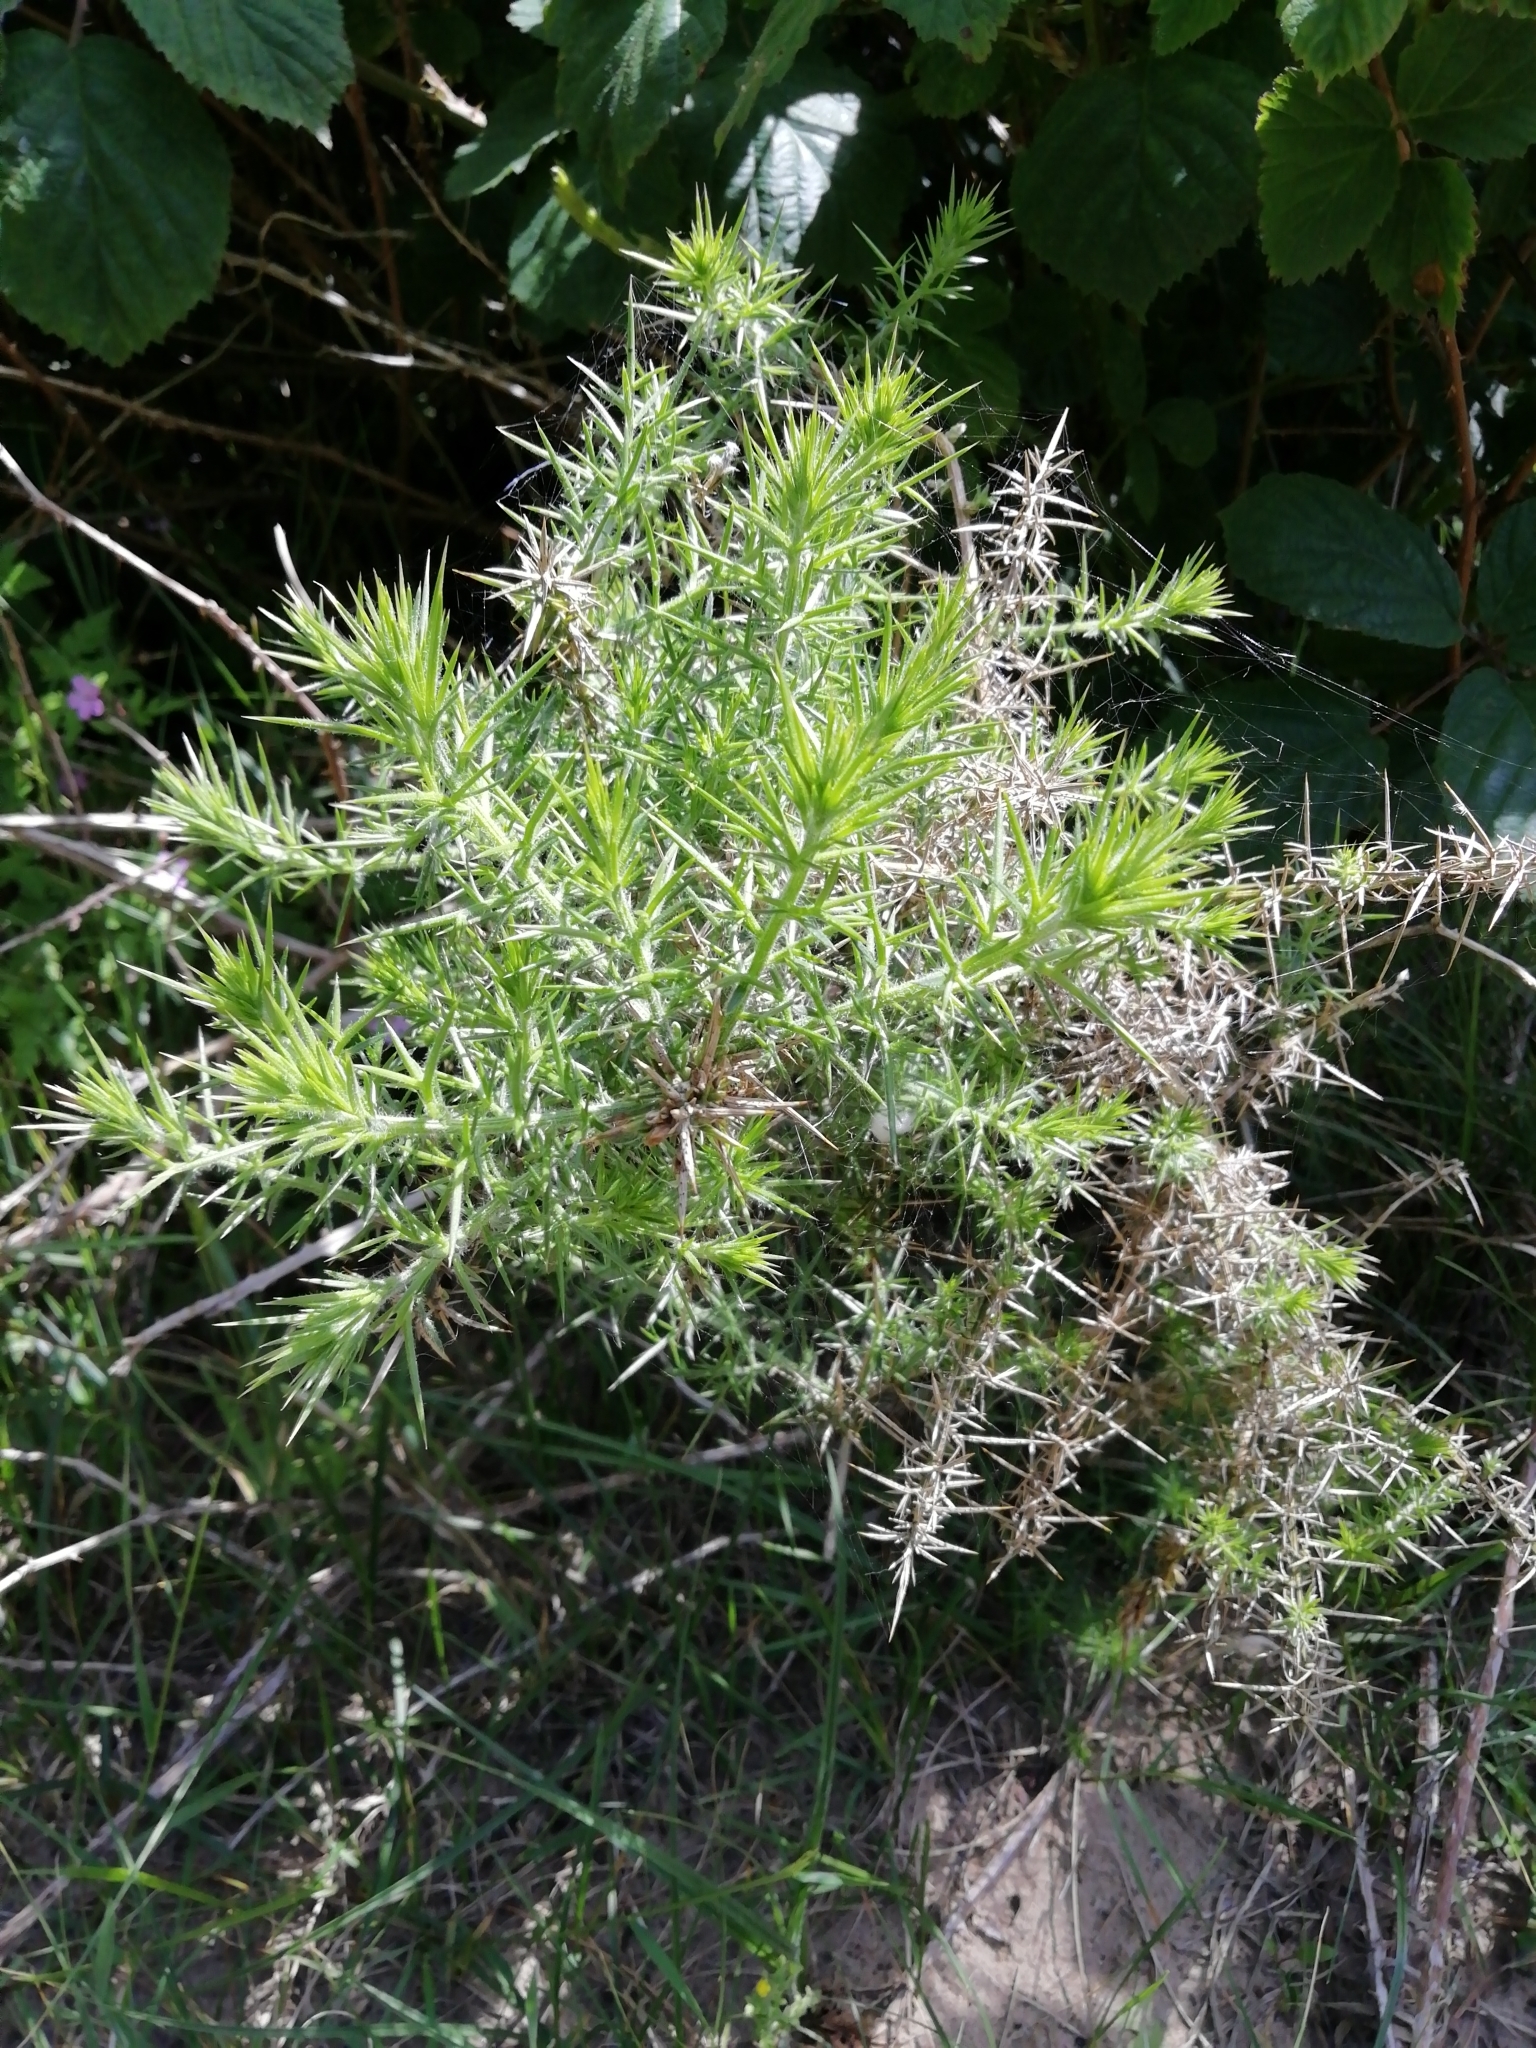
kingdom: Plantae
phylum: Tracheophyta
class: Magnoliopsida
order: Fabales
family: Fabaceae
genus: Ulex
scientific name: Ulex europaeus
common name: Common gorse
